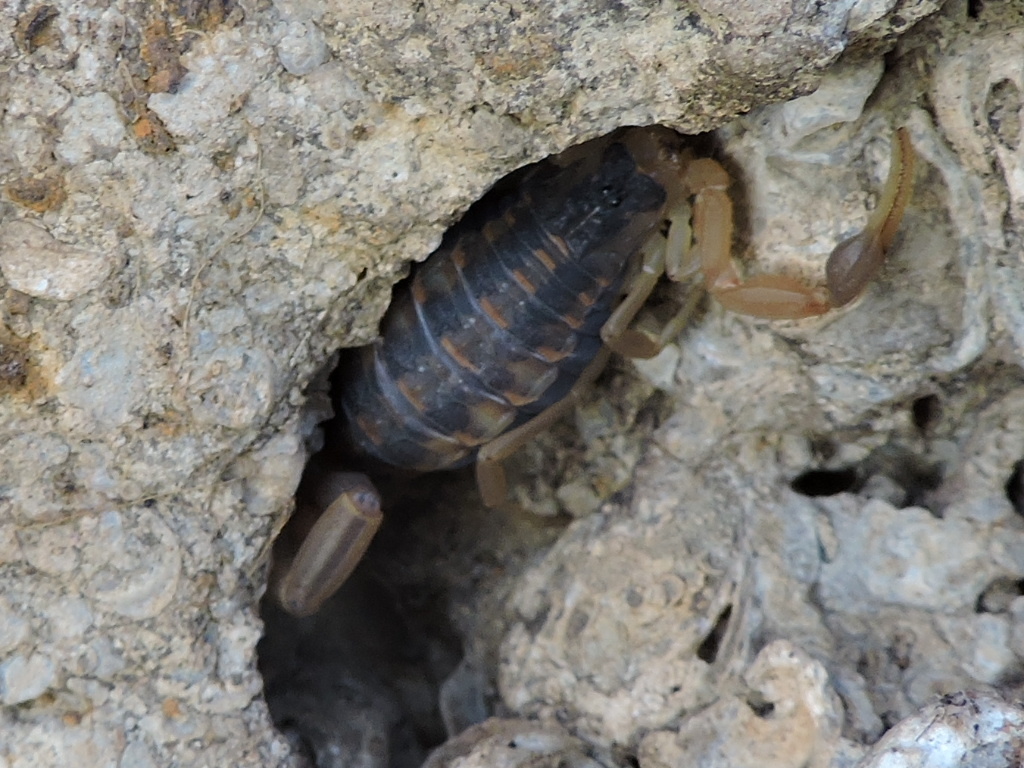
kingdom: Animalia
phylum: Arthropoda
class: Arachnida
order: Scorpiones
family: Buthidae
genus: Centruroides
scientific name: Centruroides vittatus
